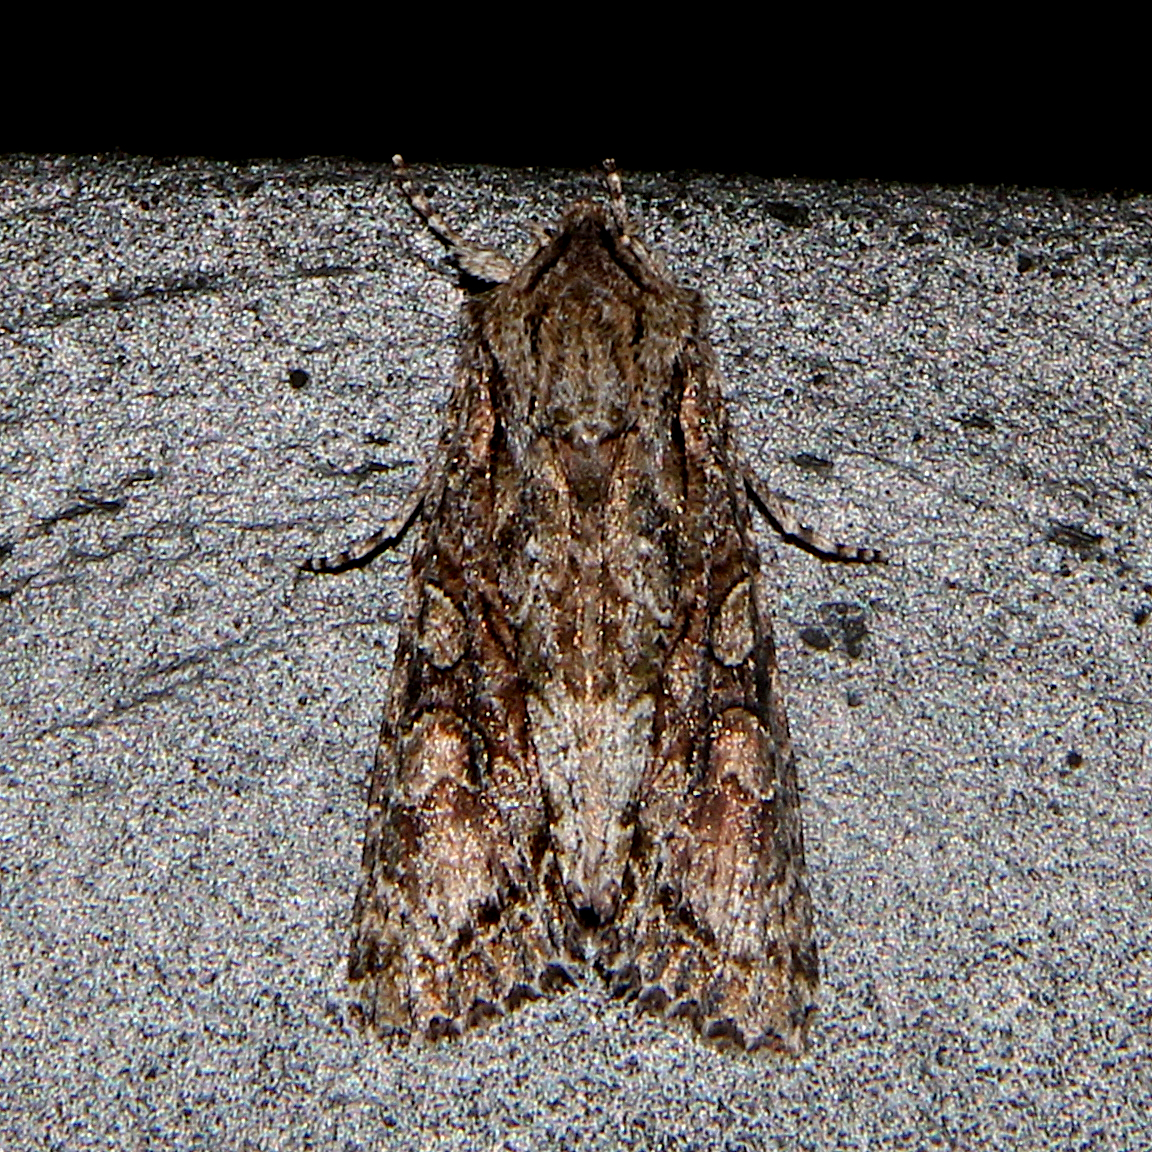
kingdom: Animalia
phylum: Arthropoda
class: Insecta
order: Lepidoptera
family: Noctuidae
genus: Ichneutica
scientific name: Ichneutica mutans
